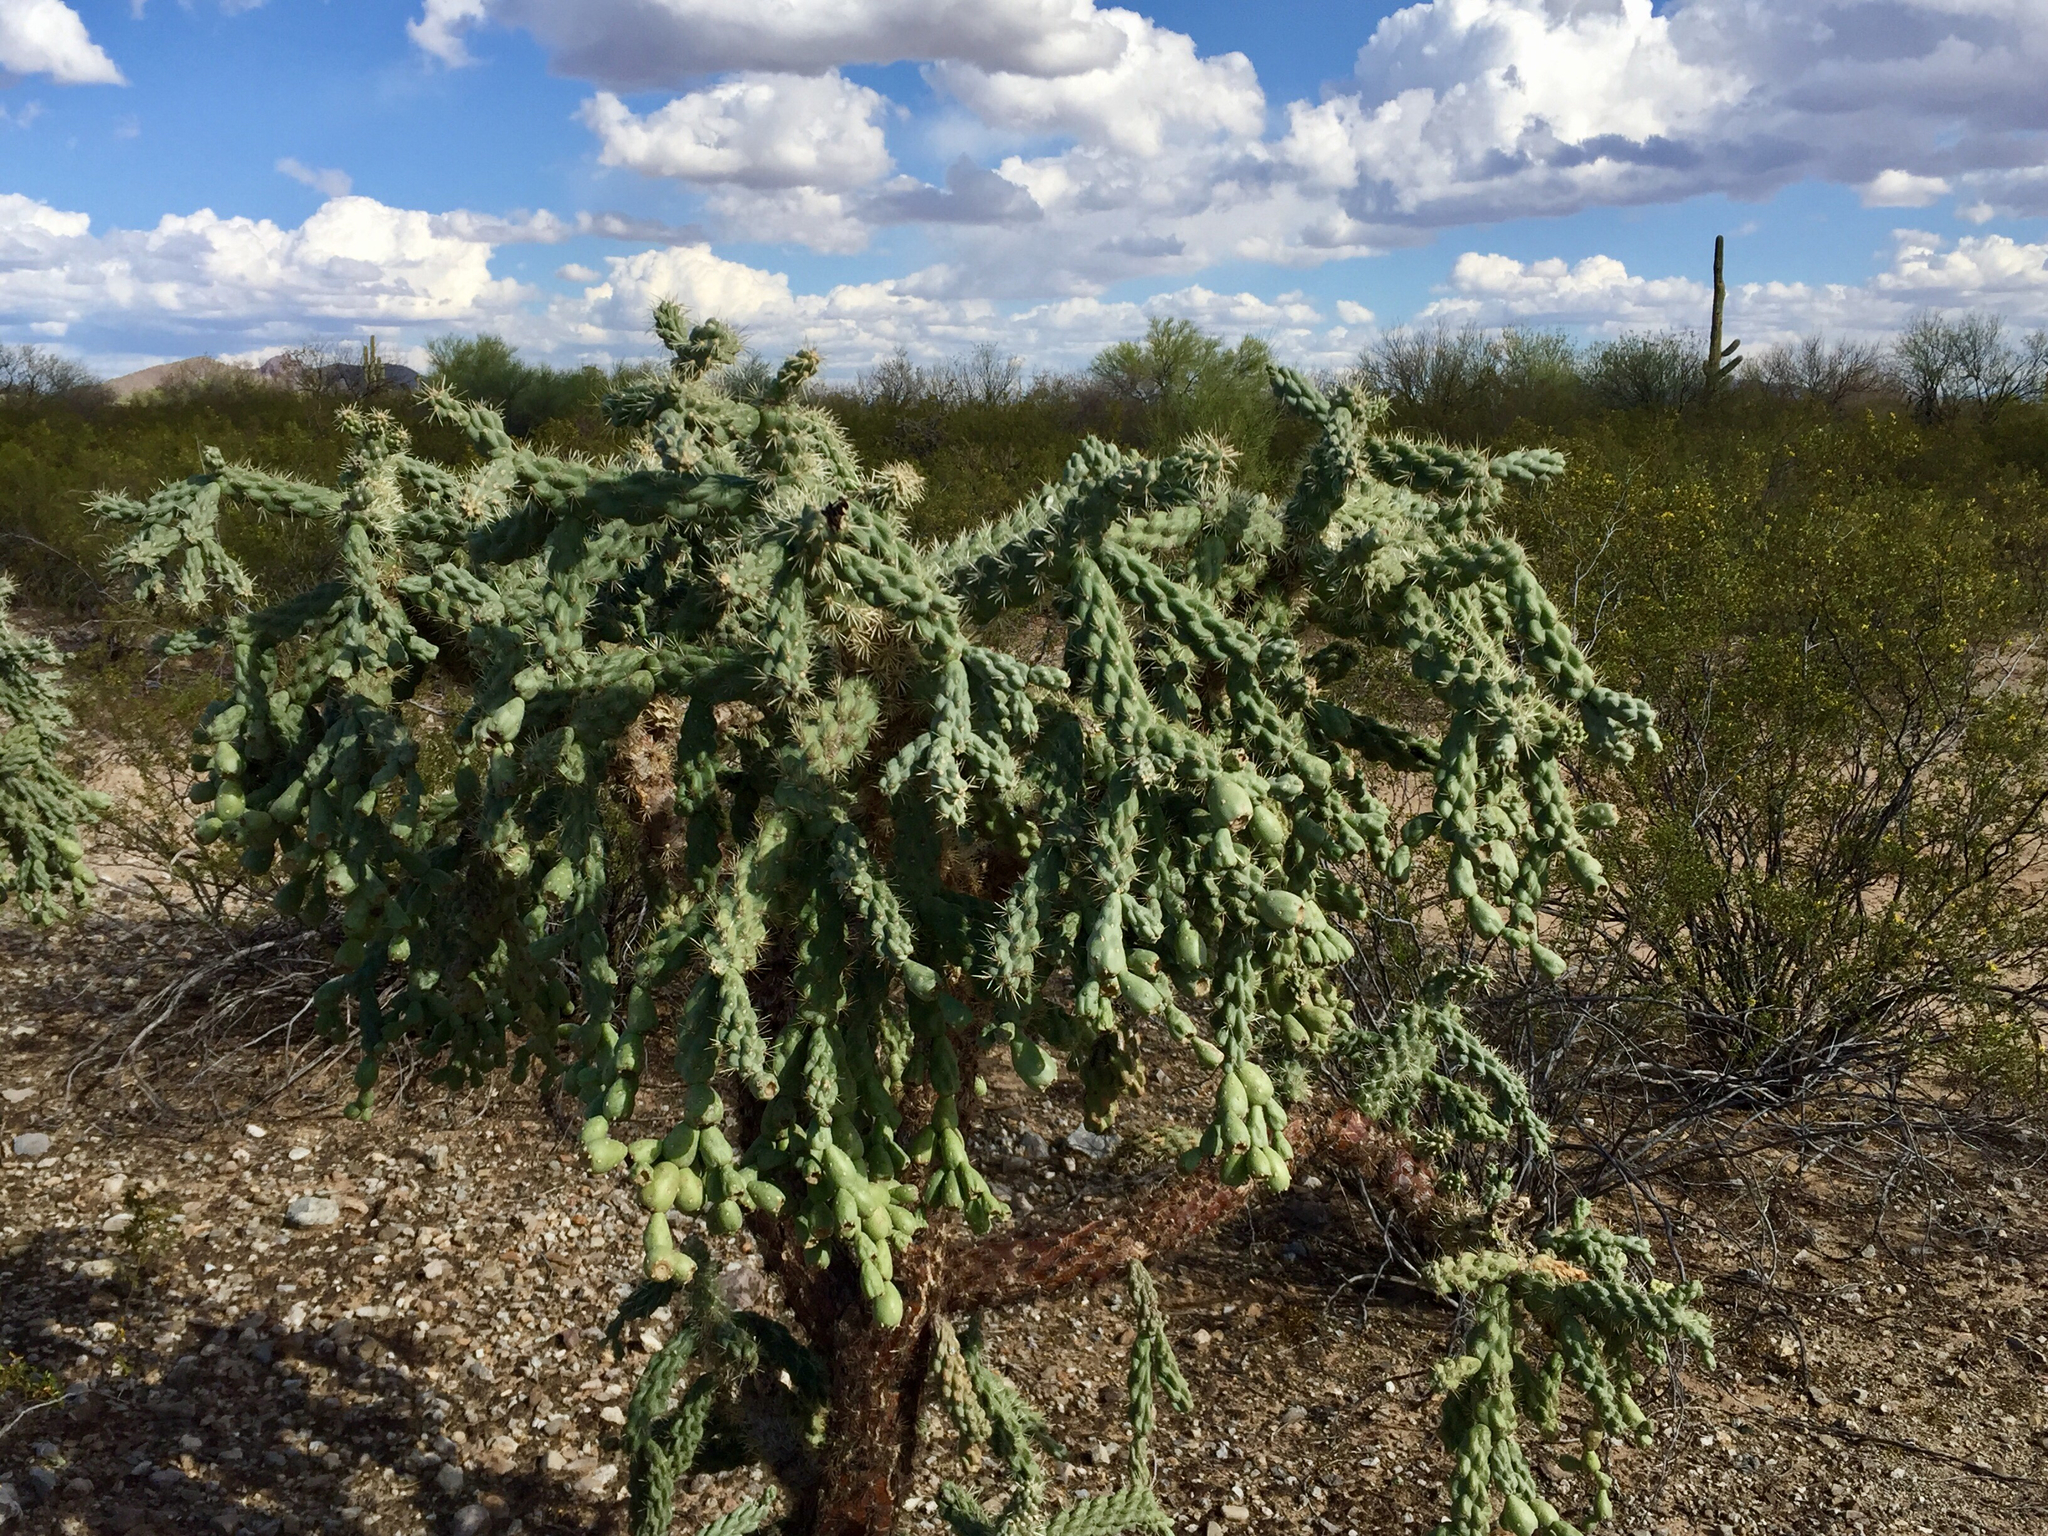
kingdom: Plantae
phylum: Tracheophyta
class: Magnoliopsida
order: Caryophyllales
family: Cactaceae
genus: Cylindropuntia
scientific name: Cylindropuntia fulgida
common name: Jumping cholla
